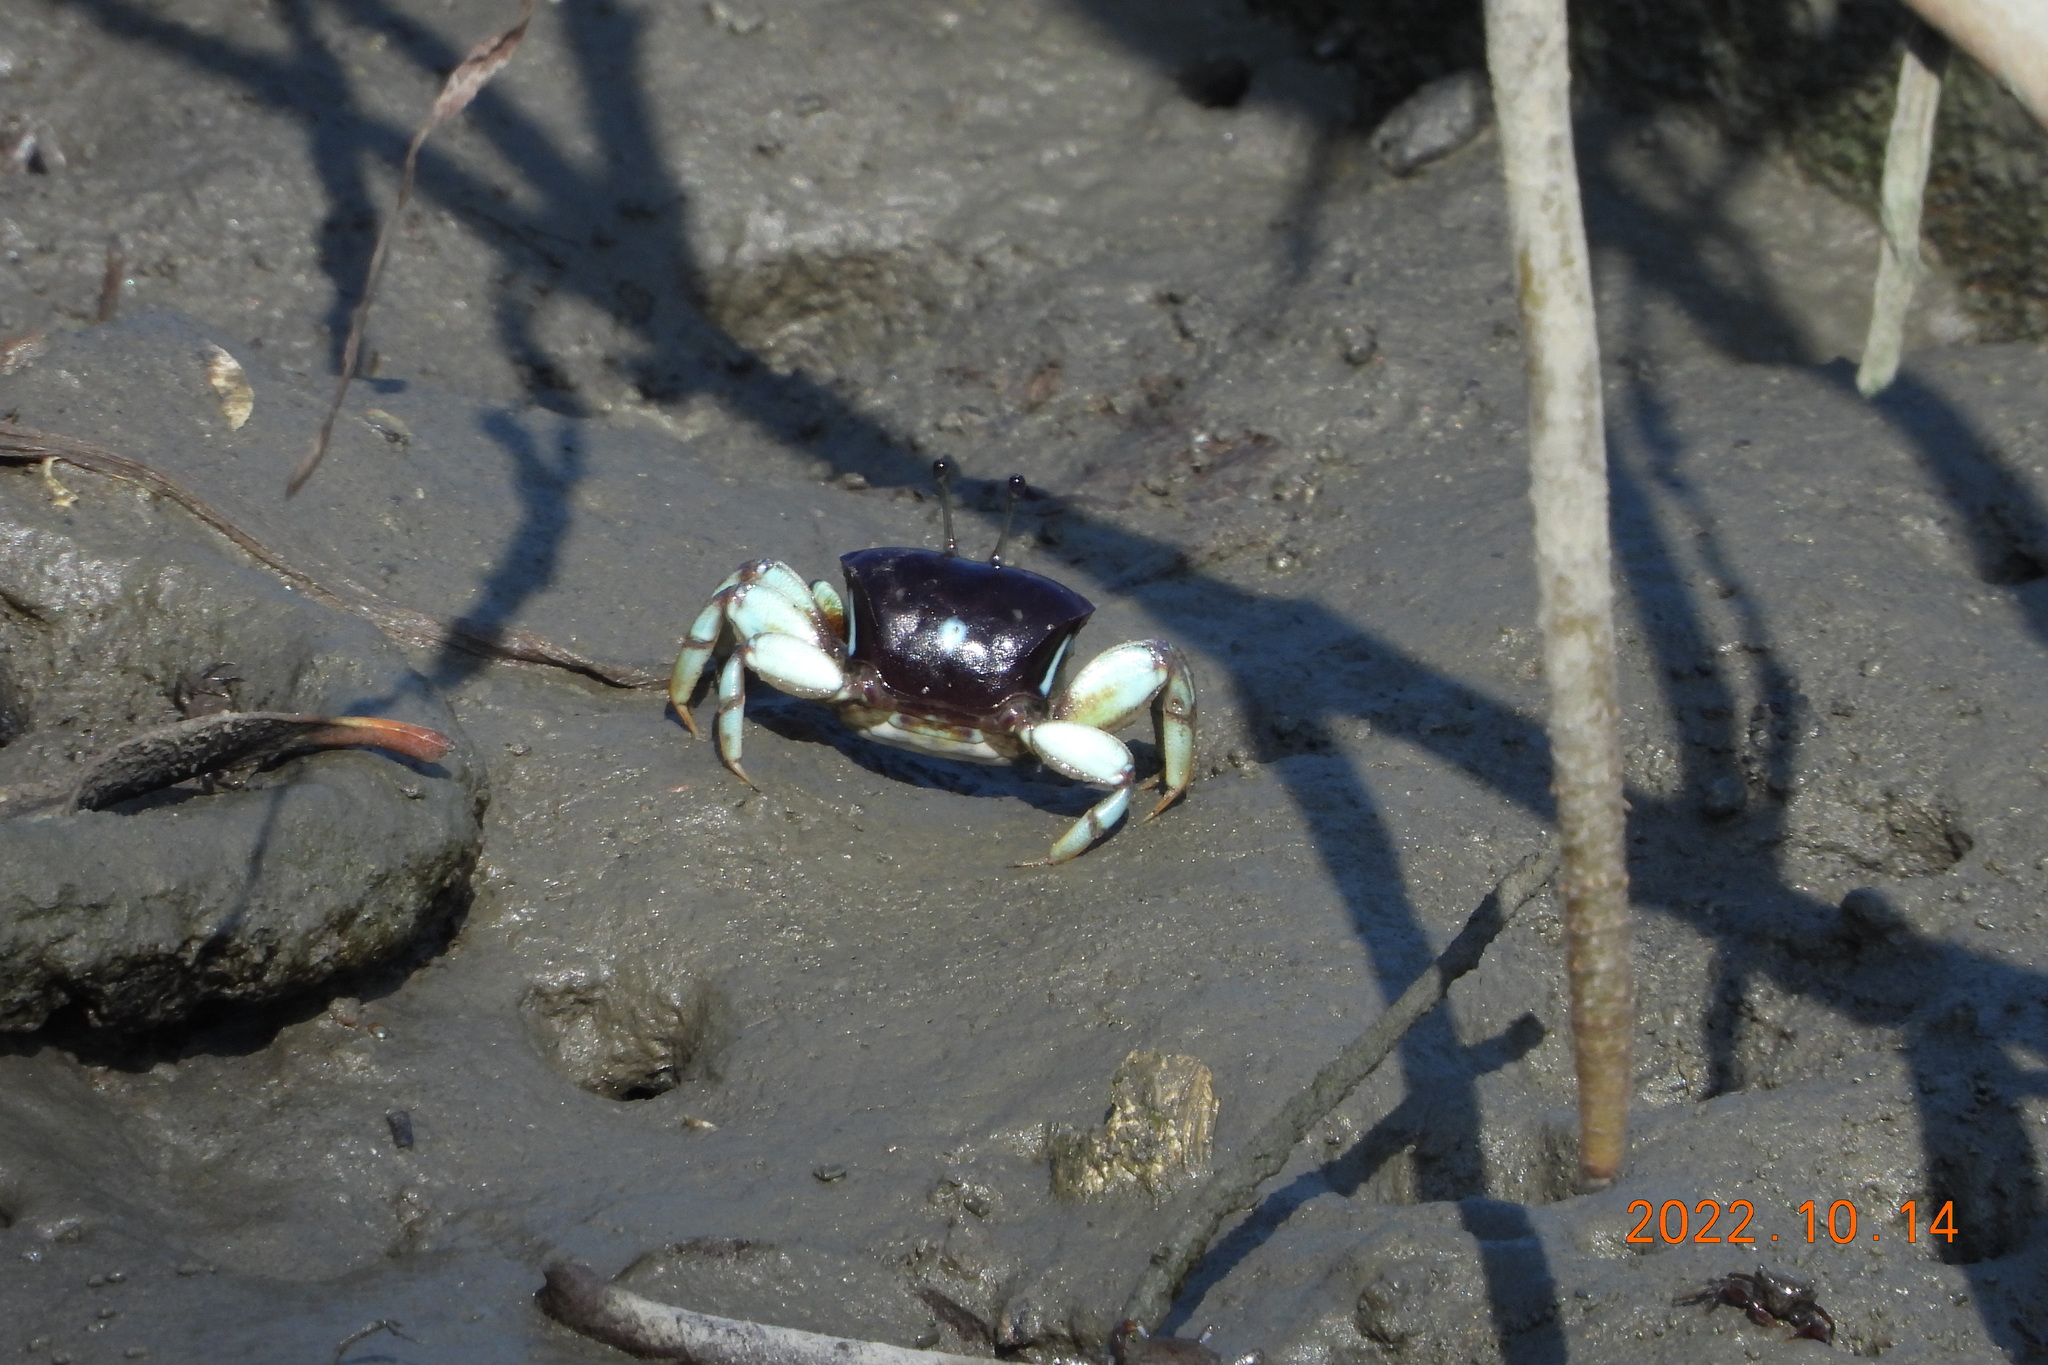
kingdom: Animalia
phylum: Arthropoda
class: Malacostraca
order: Decapoda
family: Ocypodidae
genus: Tubuca
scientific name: Tubuca dussumieri
